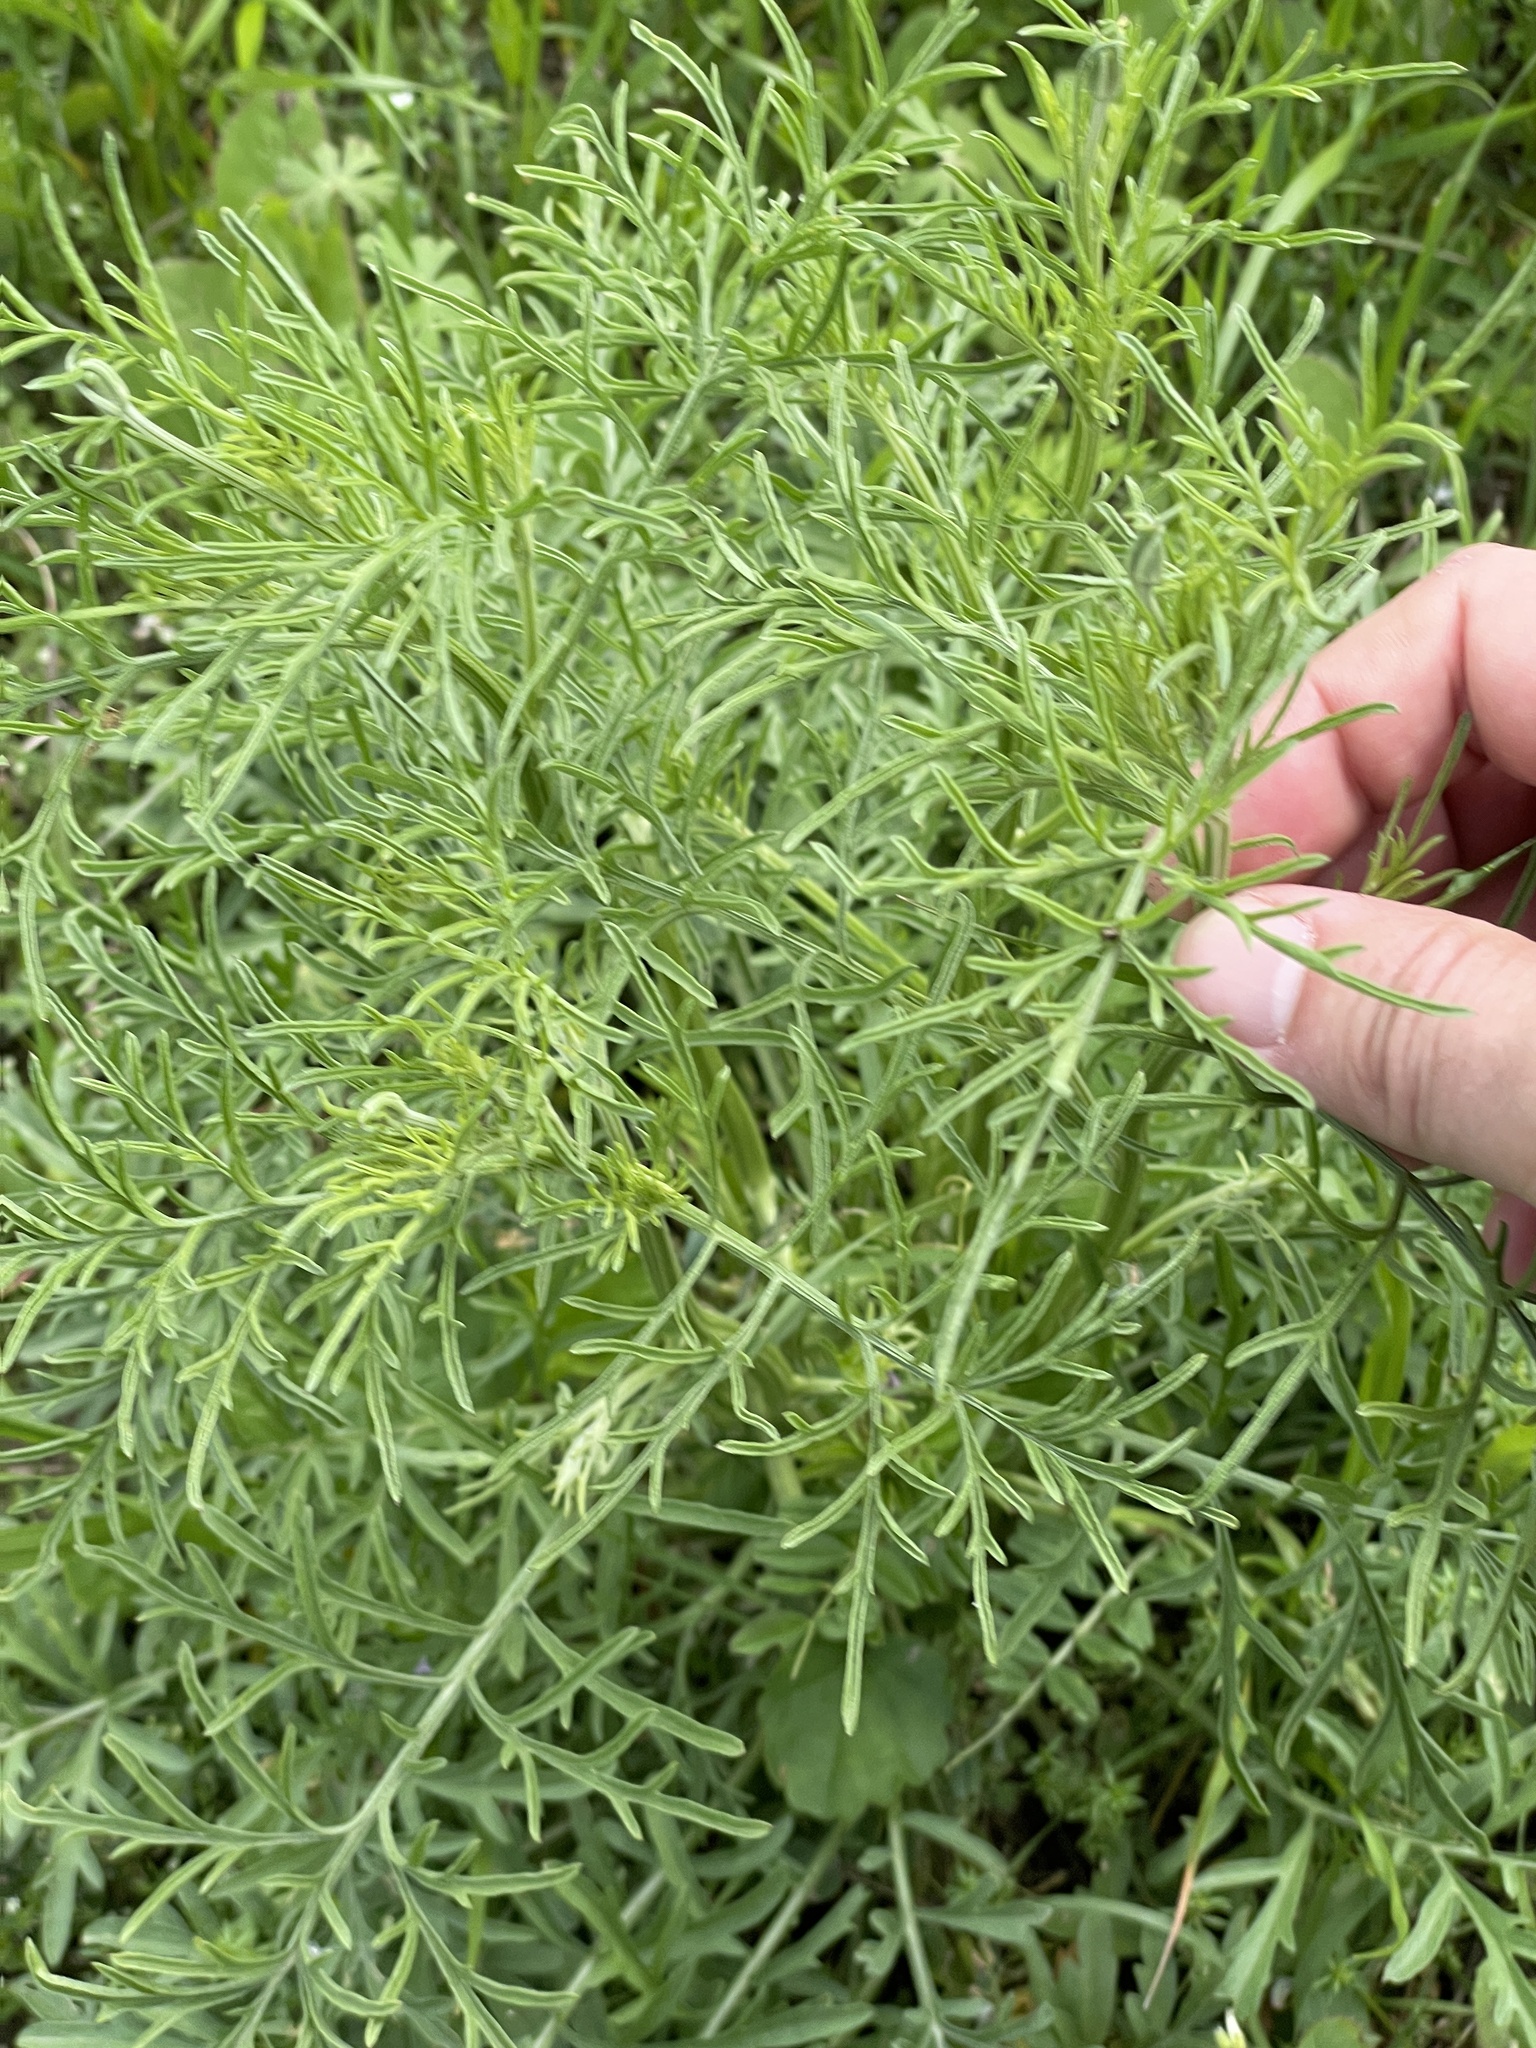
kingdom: Plantae
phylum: Tracheophyta
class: Magnoliopsida
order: Asterales
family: Asteraceae
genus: Ratibida
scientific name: Ratibida columnifera
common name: Prairie coneflower
